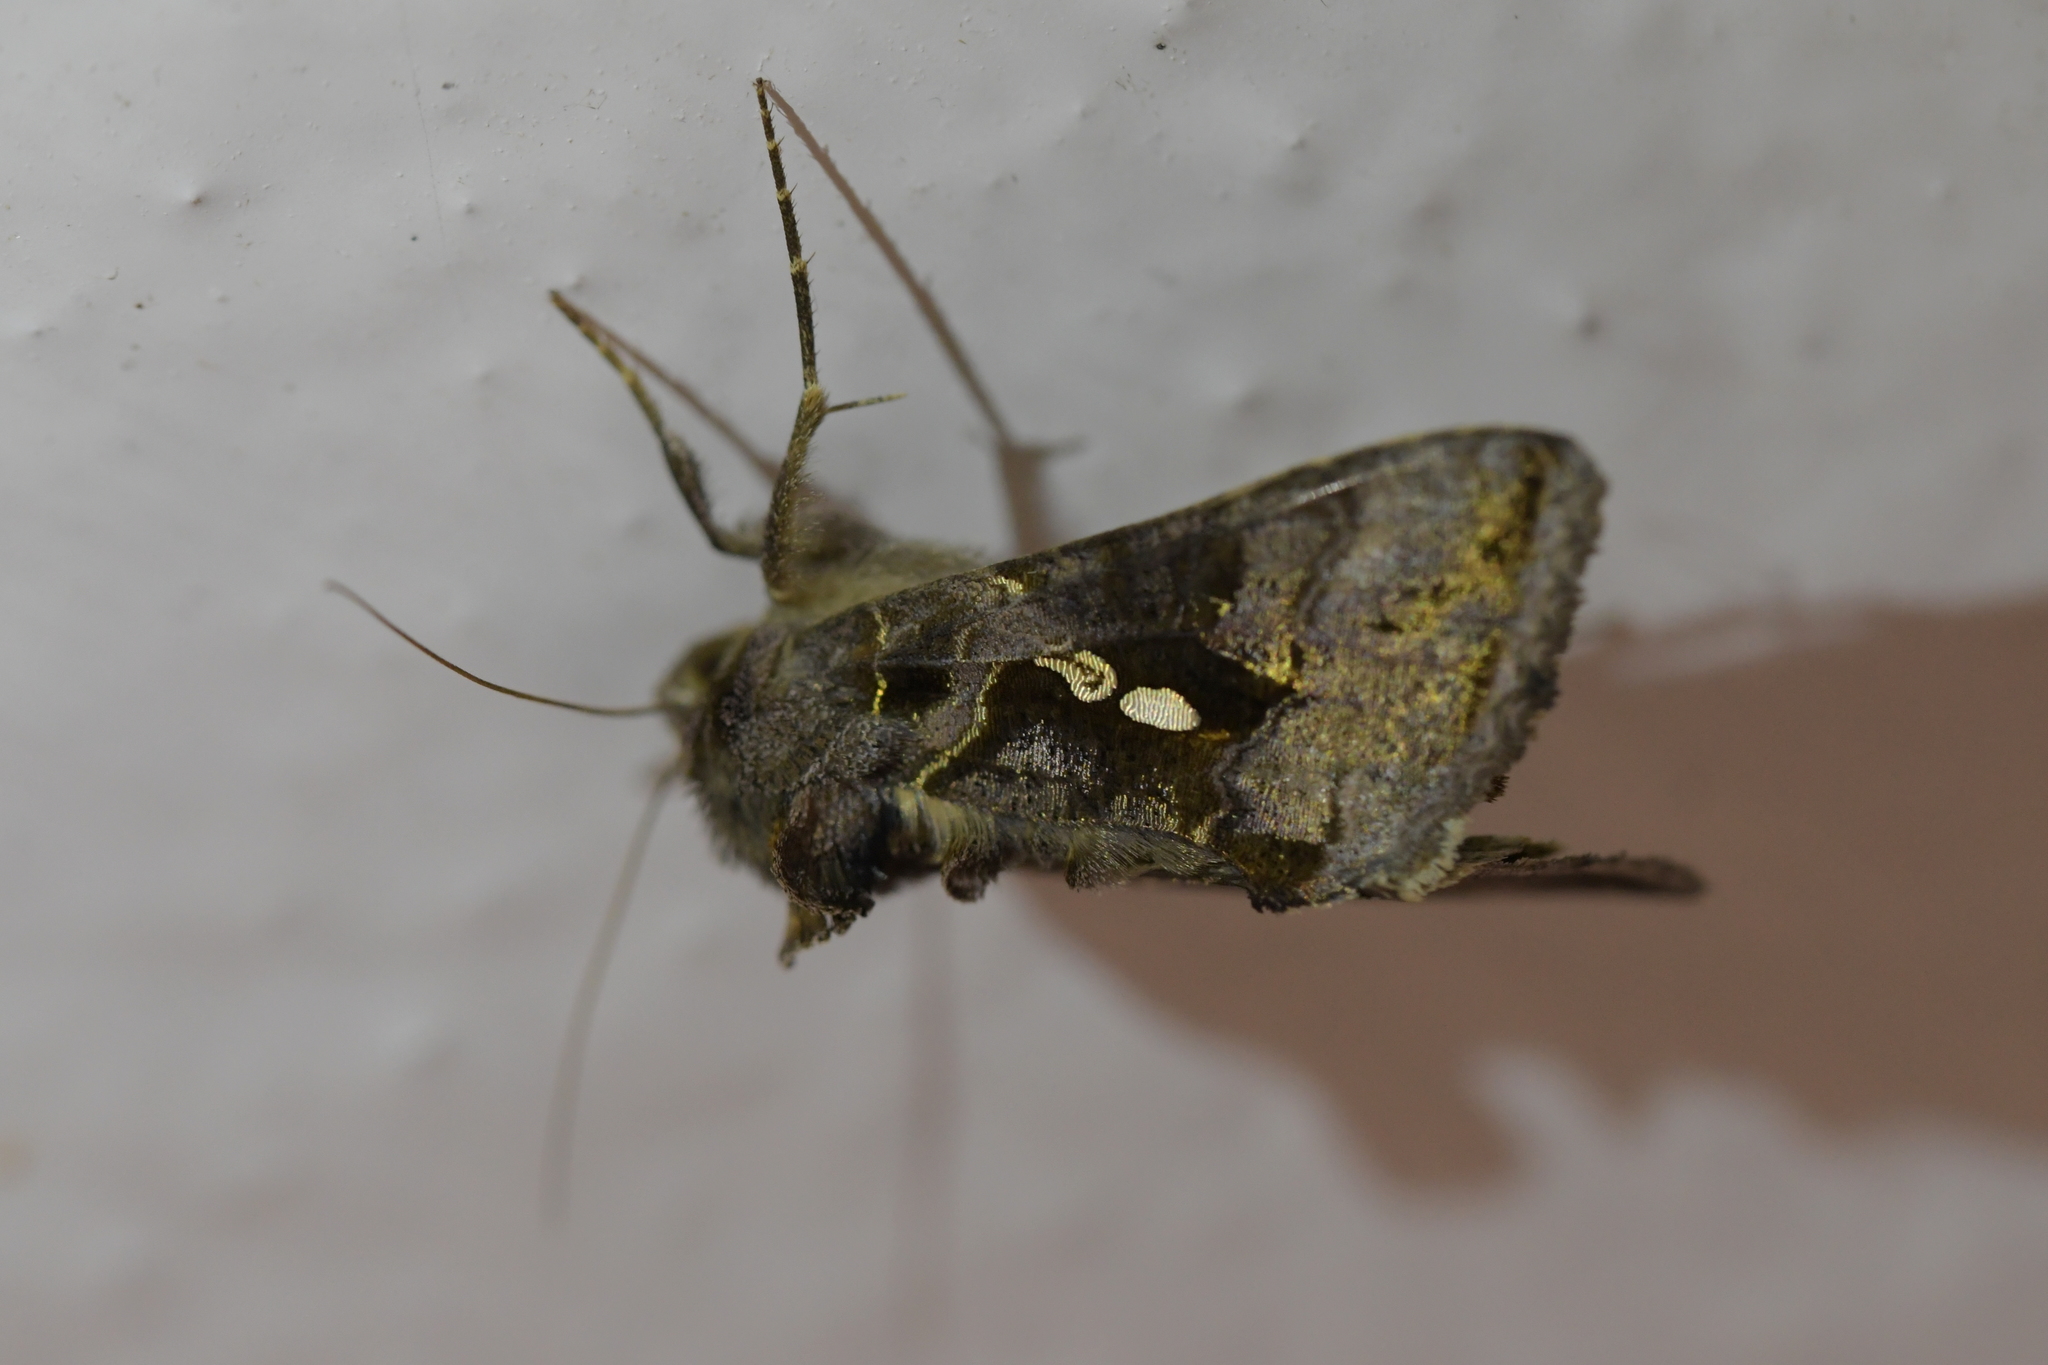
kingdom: Animalia
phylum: Arthropoda
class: Insecta
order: Lepidoptera
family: Noctuidae
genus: Chrysodeixis
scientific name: Chrysodeixis eriosoma
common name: Green garden looper
